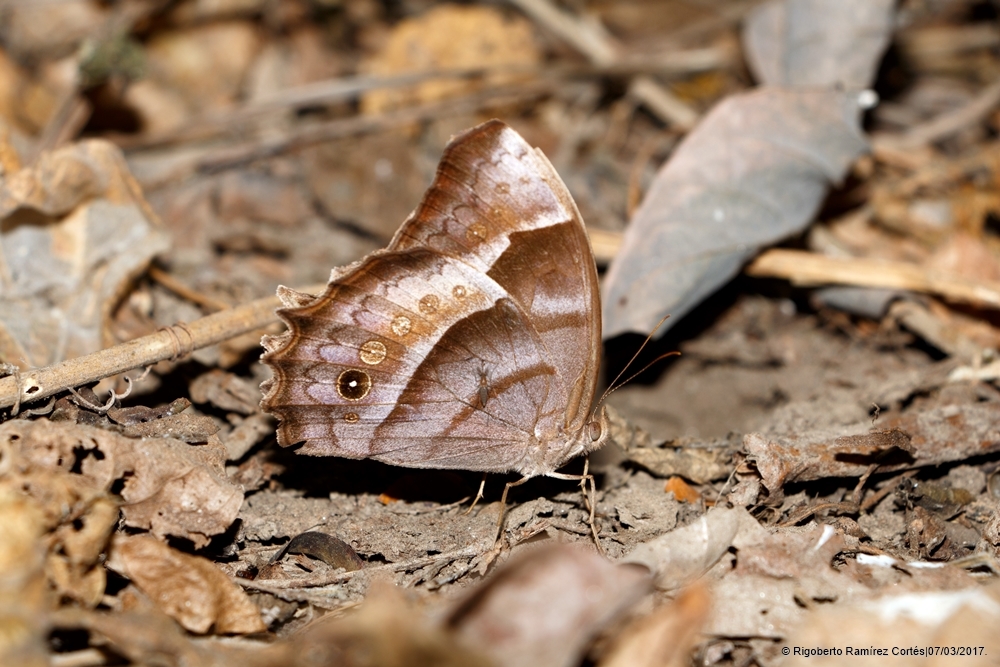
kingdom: Animalia
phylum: Arthropoda
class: Insecta
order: Lepidoptera
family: Nymphalidae
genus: Taygetis
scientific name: Taygetis uncinata
